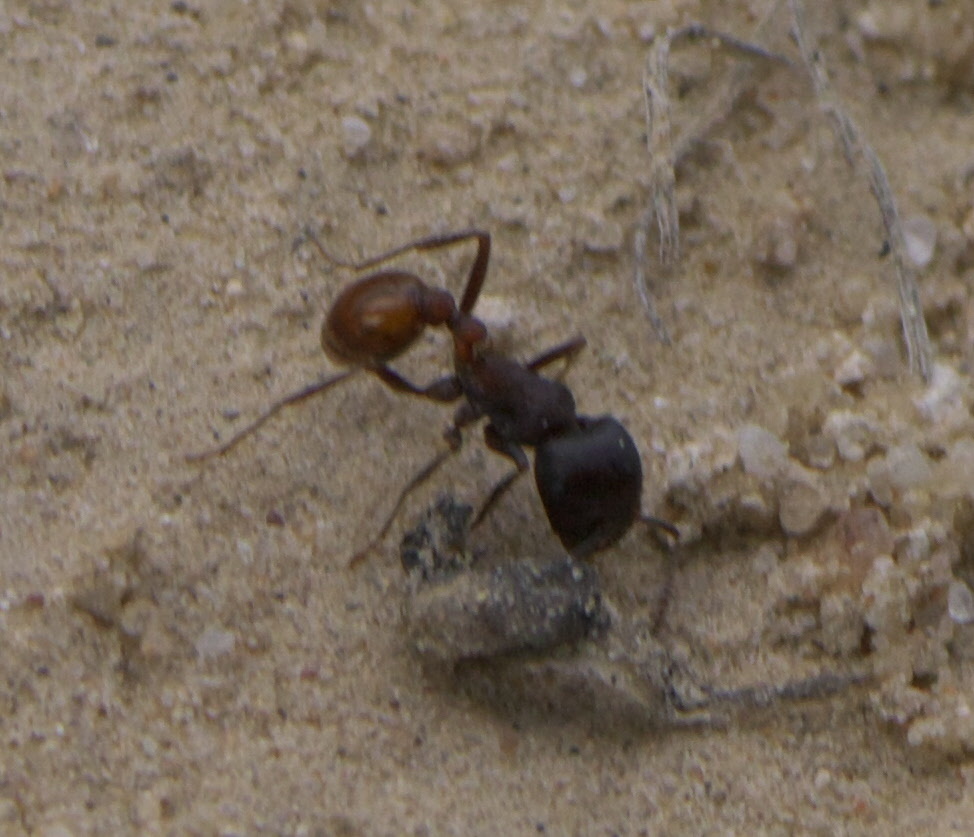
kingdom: Animalia
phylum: Arthropoda
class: Insecta
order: Hymenoptera
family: Formicidae
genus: Pogonomyrmex
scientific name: Pogonomyrmex rugosus
